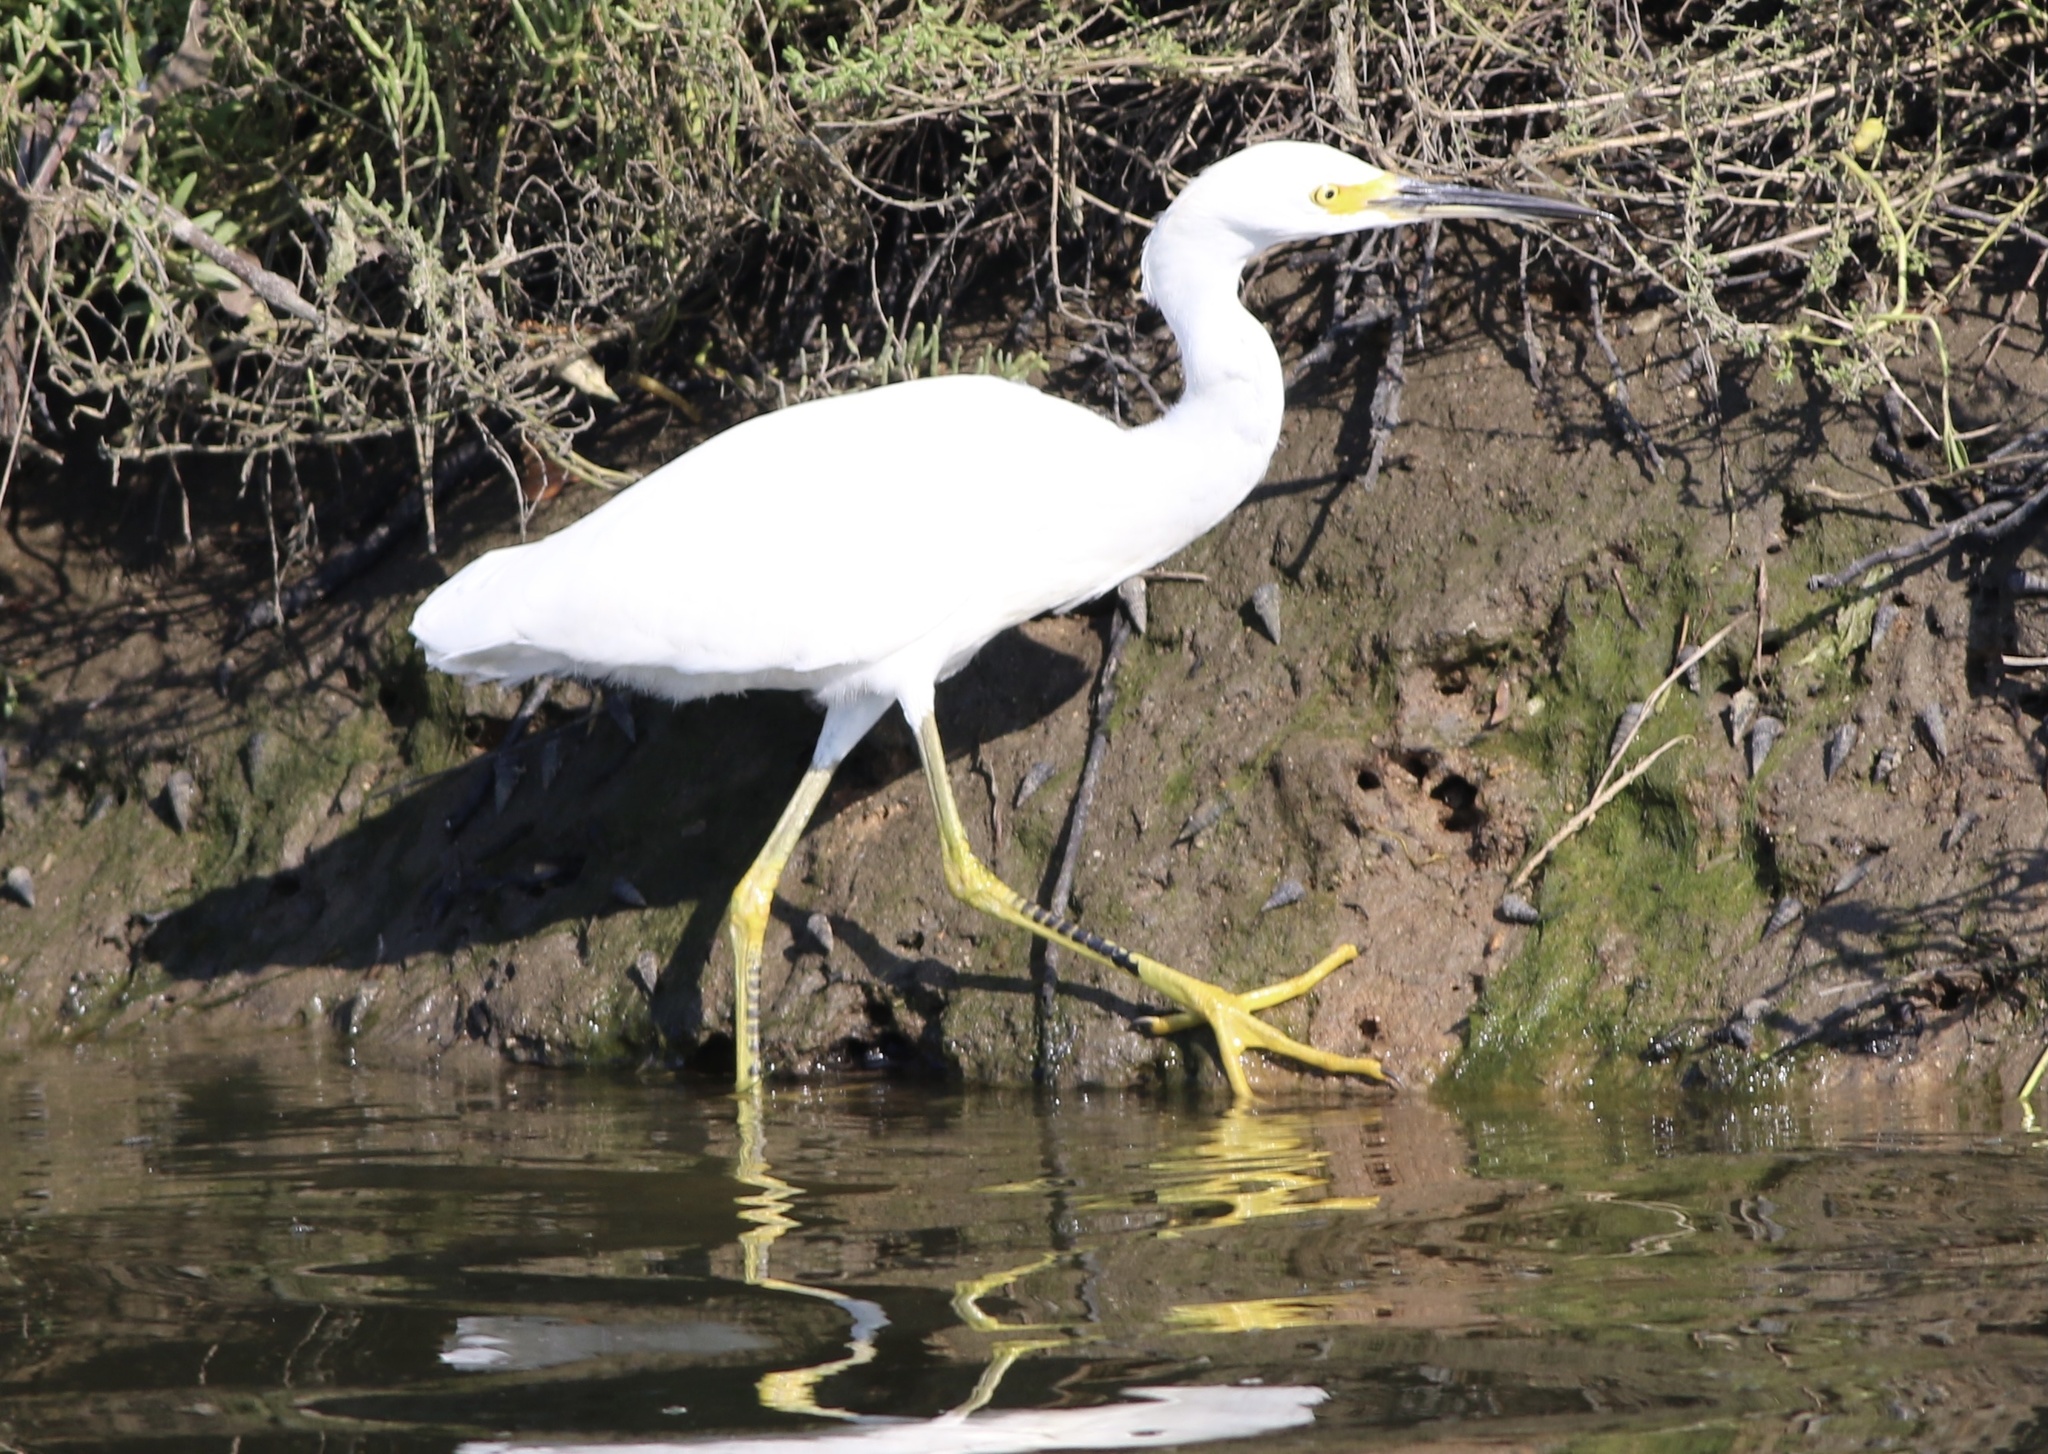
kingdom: Animalia
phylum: Chordata
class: Aves
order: Pelecaniformes
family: Ardeidae
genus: Egretta
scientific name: Egretta thula
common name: Snowy egret
